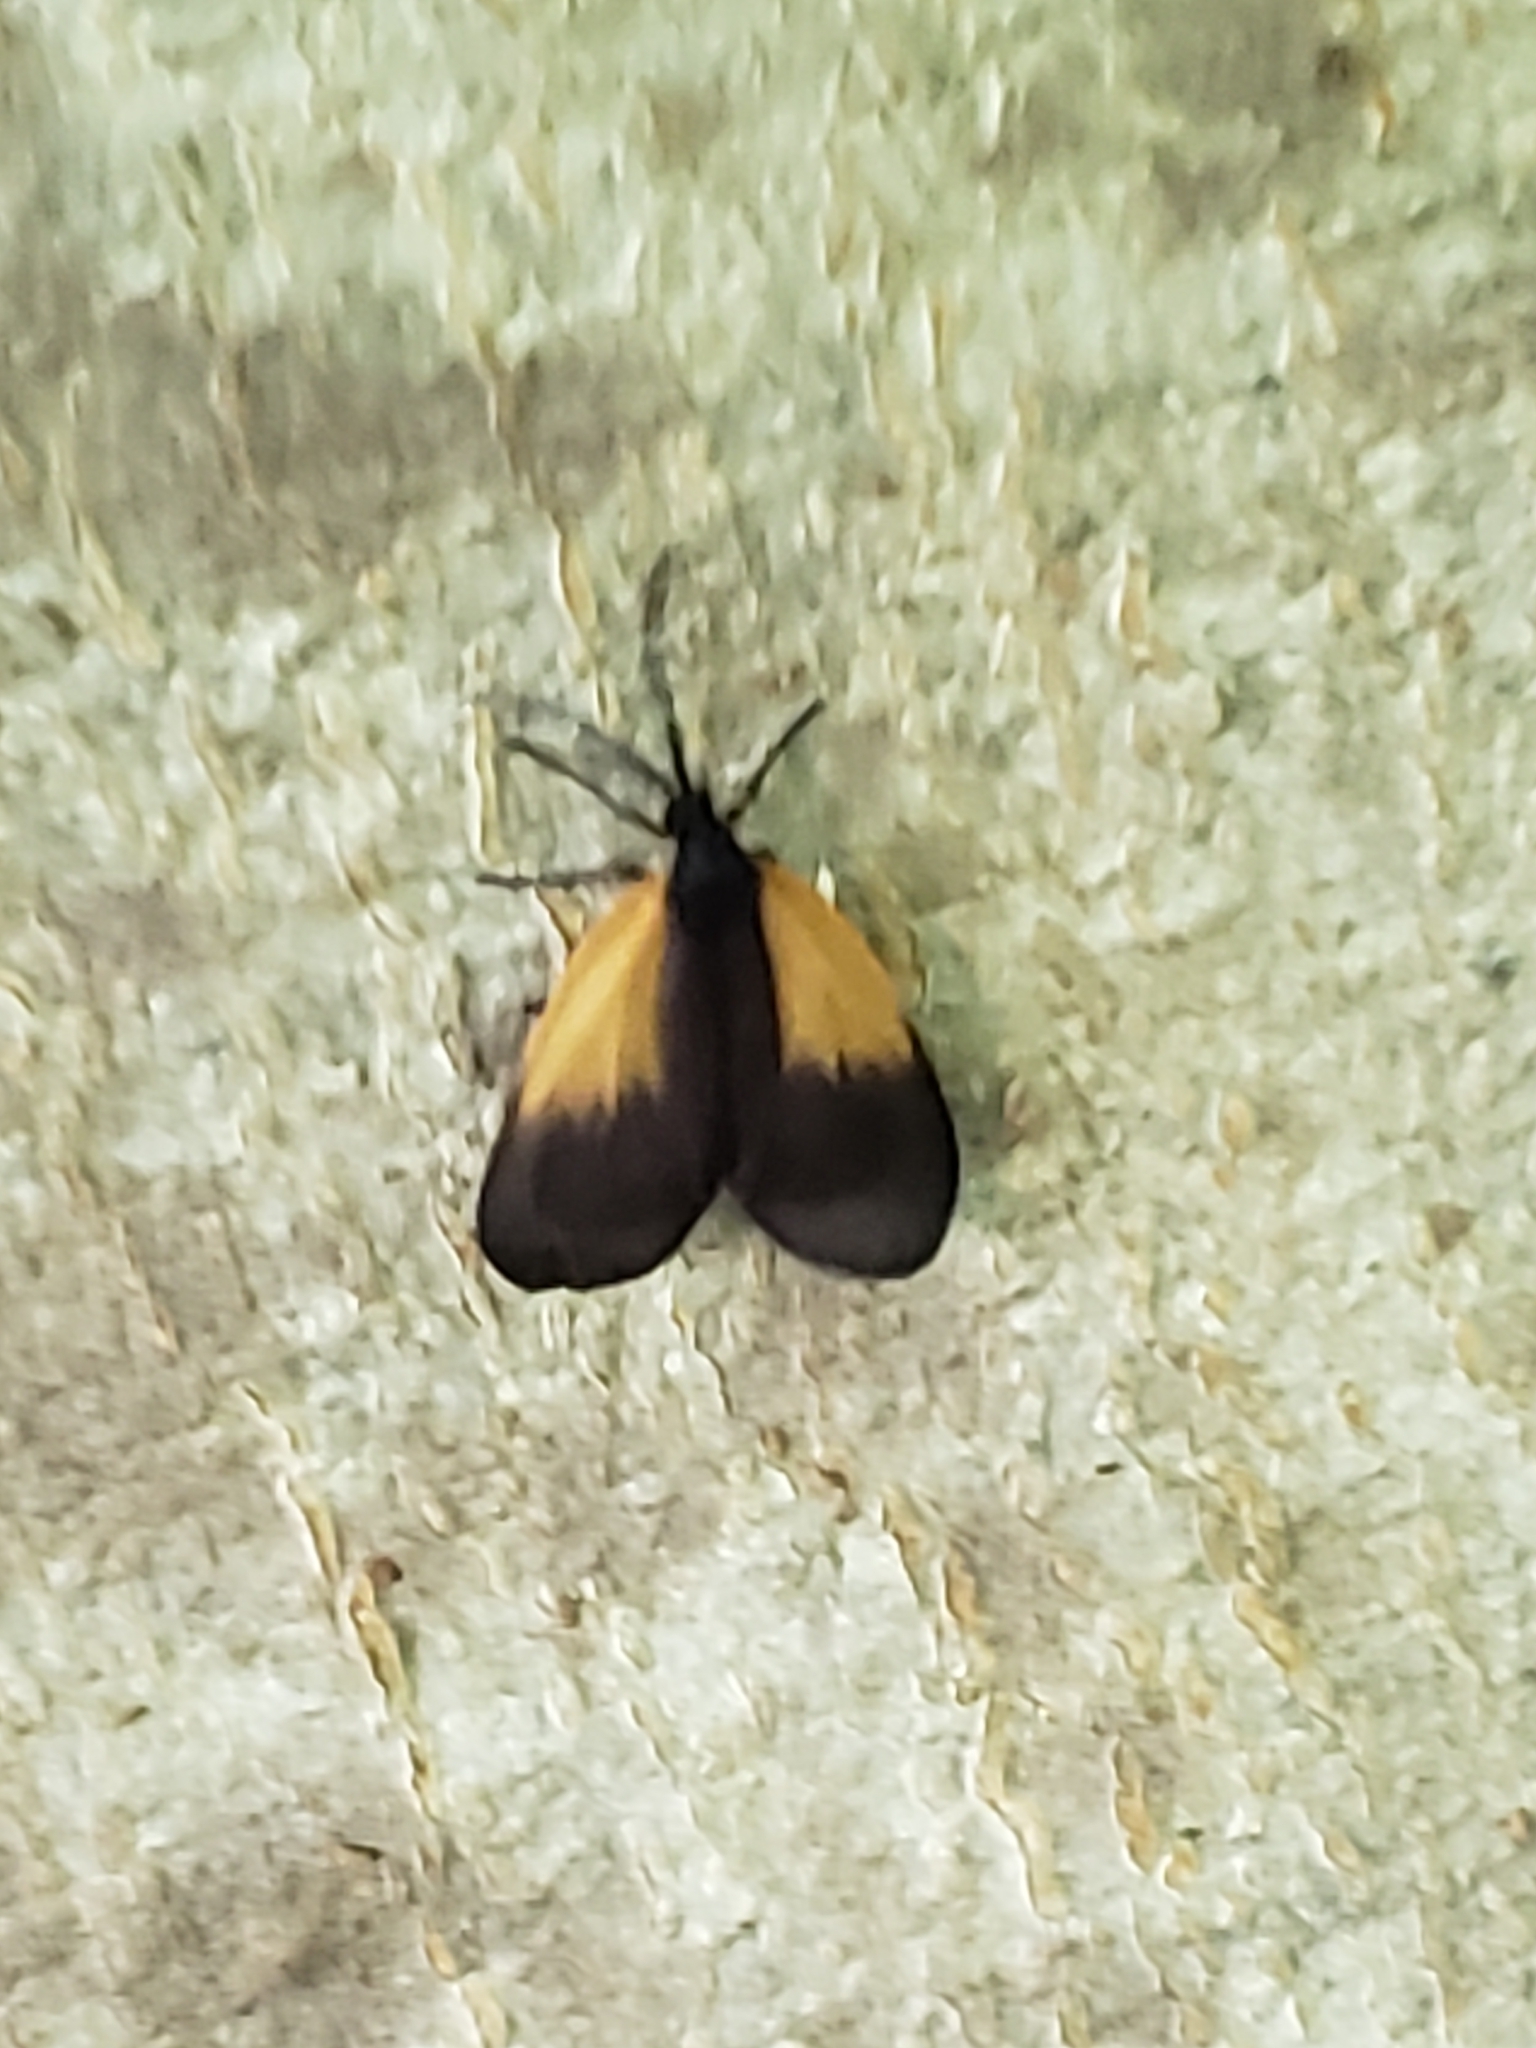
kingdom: Animalia
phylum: Arthropoda
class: Insecta
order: Lepidoptera
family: Zygaenidae
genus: Malthaca
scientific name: Malthaca dimidiata
